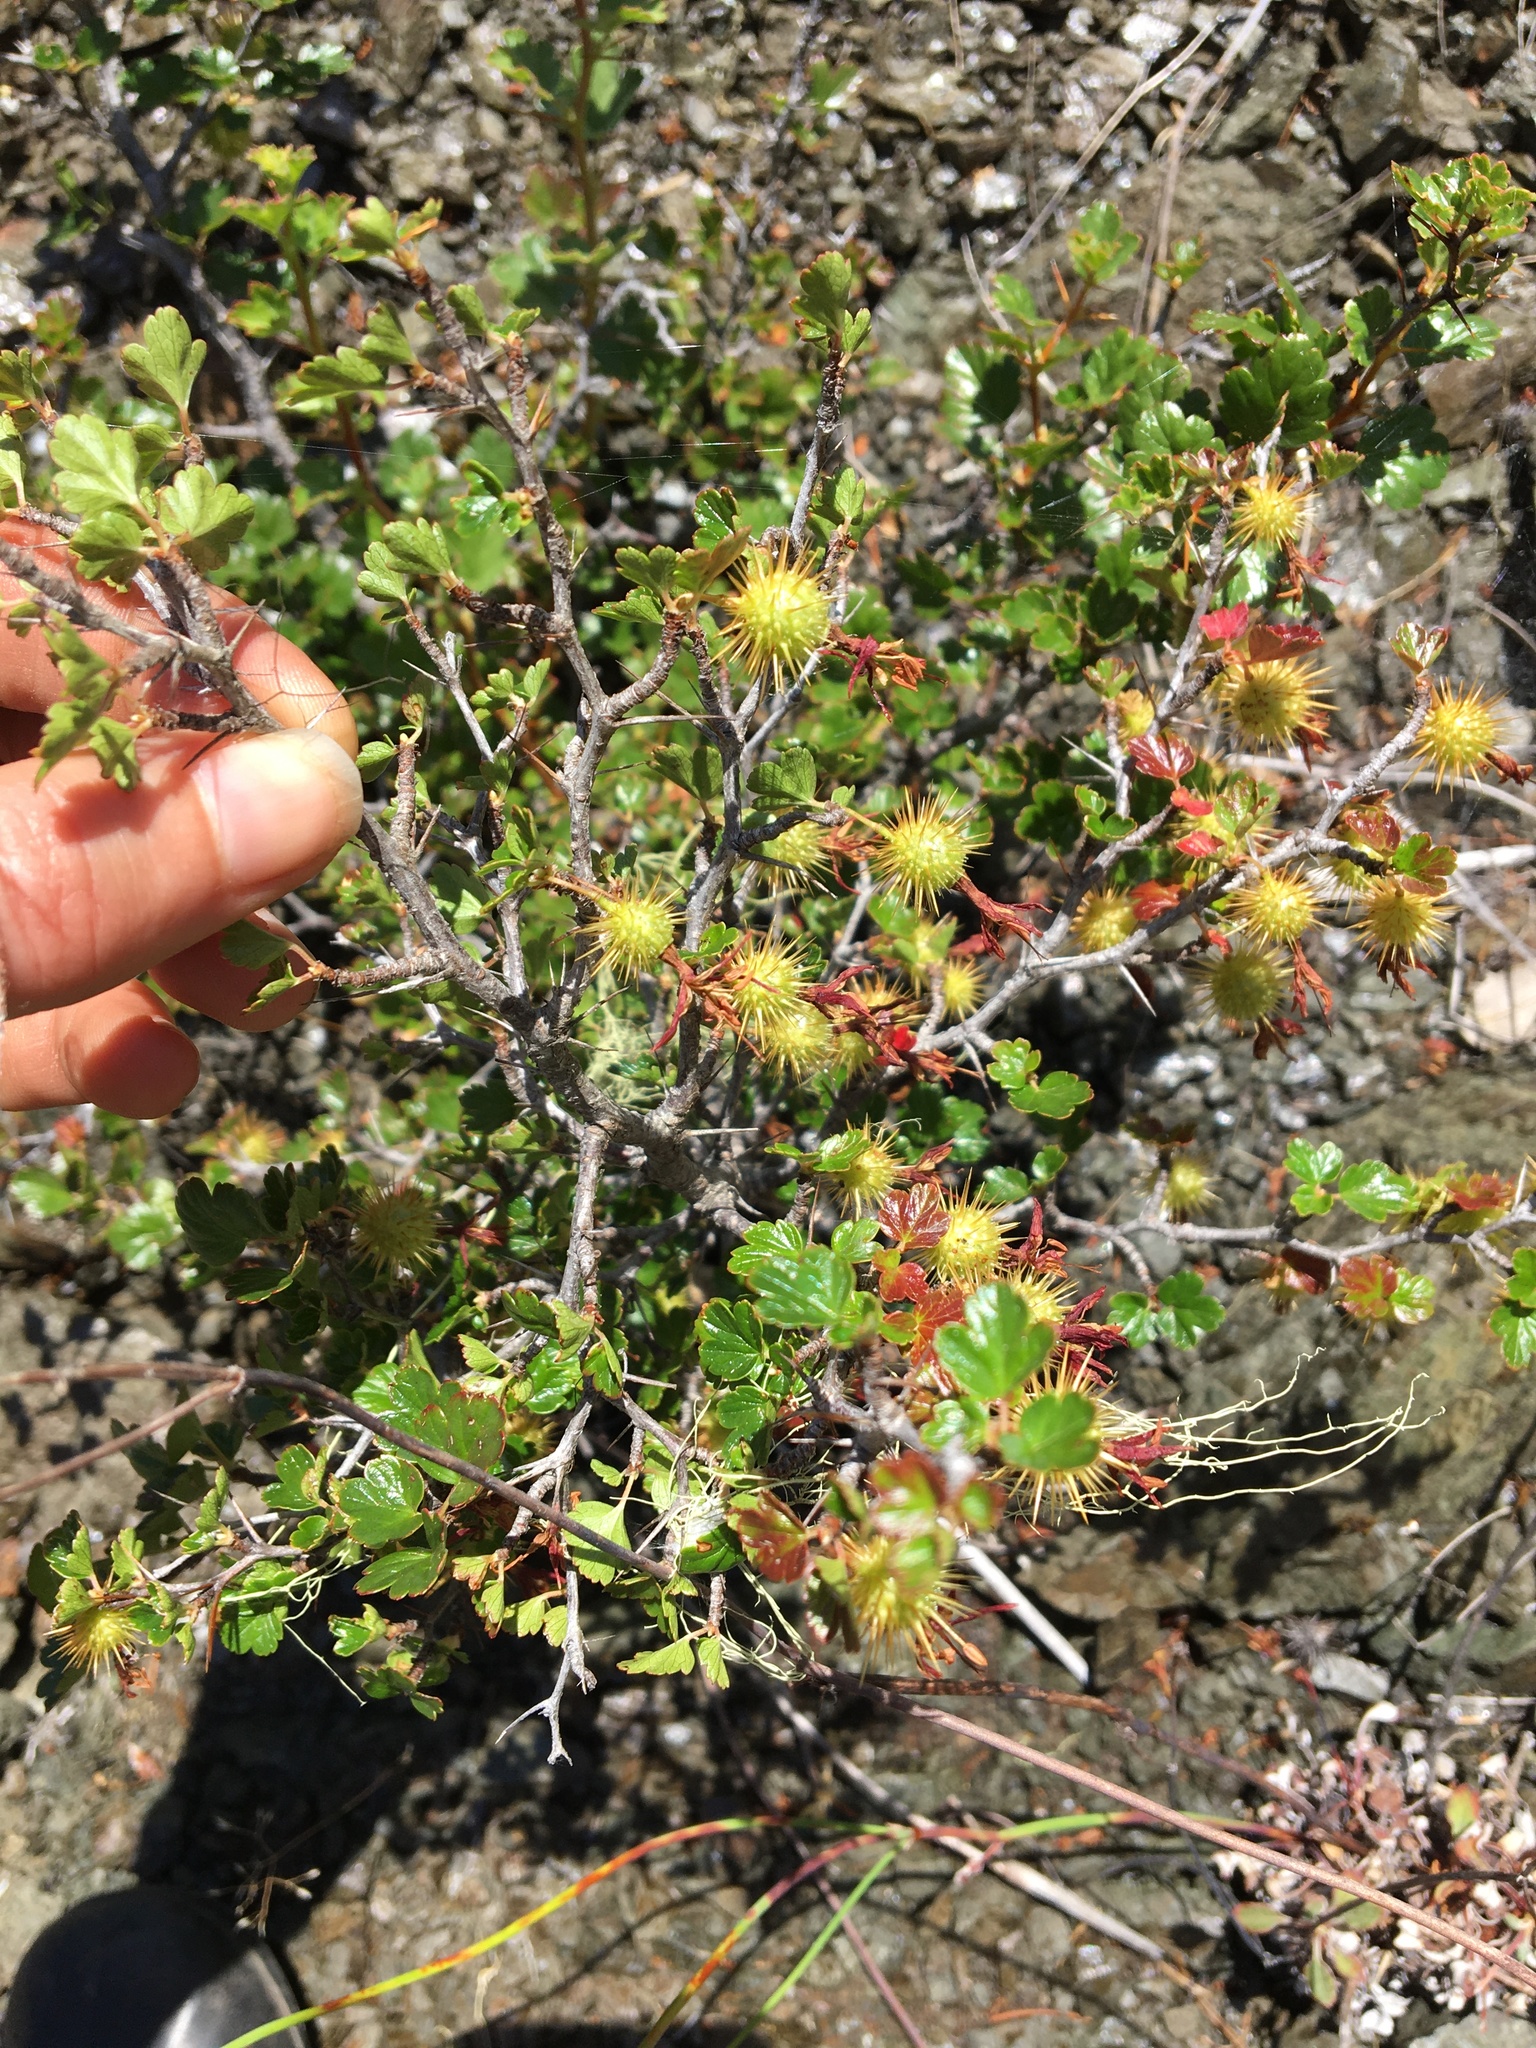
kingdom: Plantae
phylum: Tracheophyta
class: Magnoliopsida
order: Saxifragales
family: Grossulariaceae
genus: Ribes
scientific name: Ribes roezlii
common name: Sierra gooseberry
